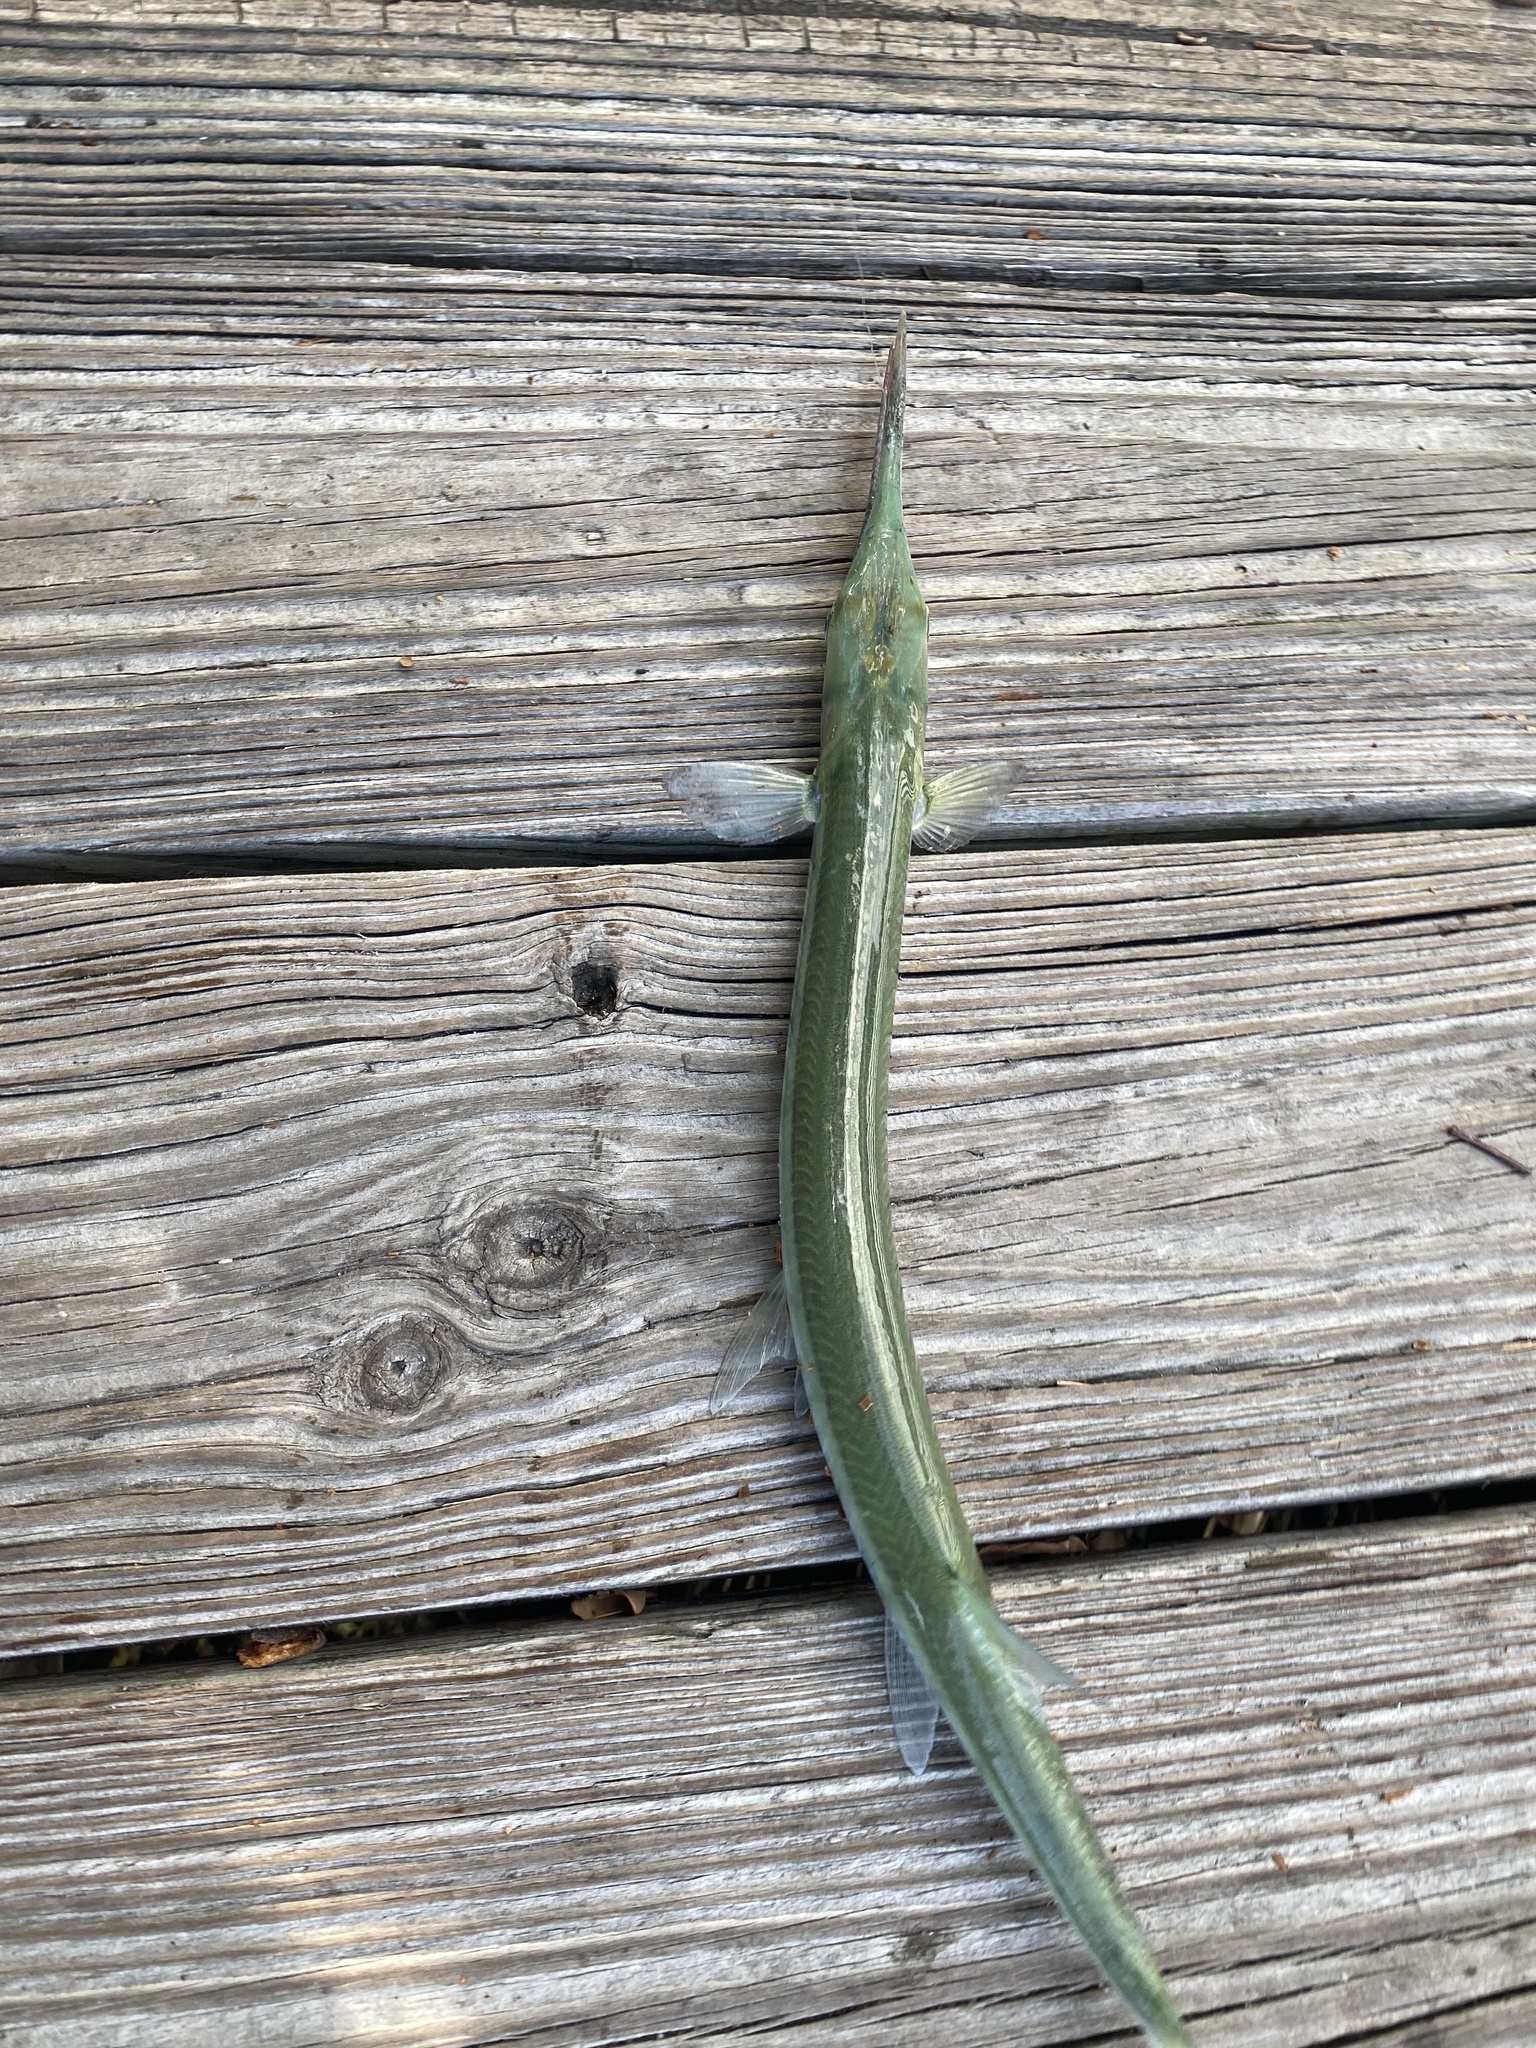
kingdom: Animalia
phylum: Chordata
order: Beloniformes
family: Belonidae
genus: Strongylura
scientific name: Strongylura marina
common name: Atlantic needlefish
